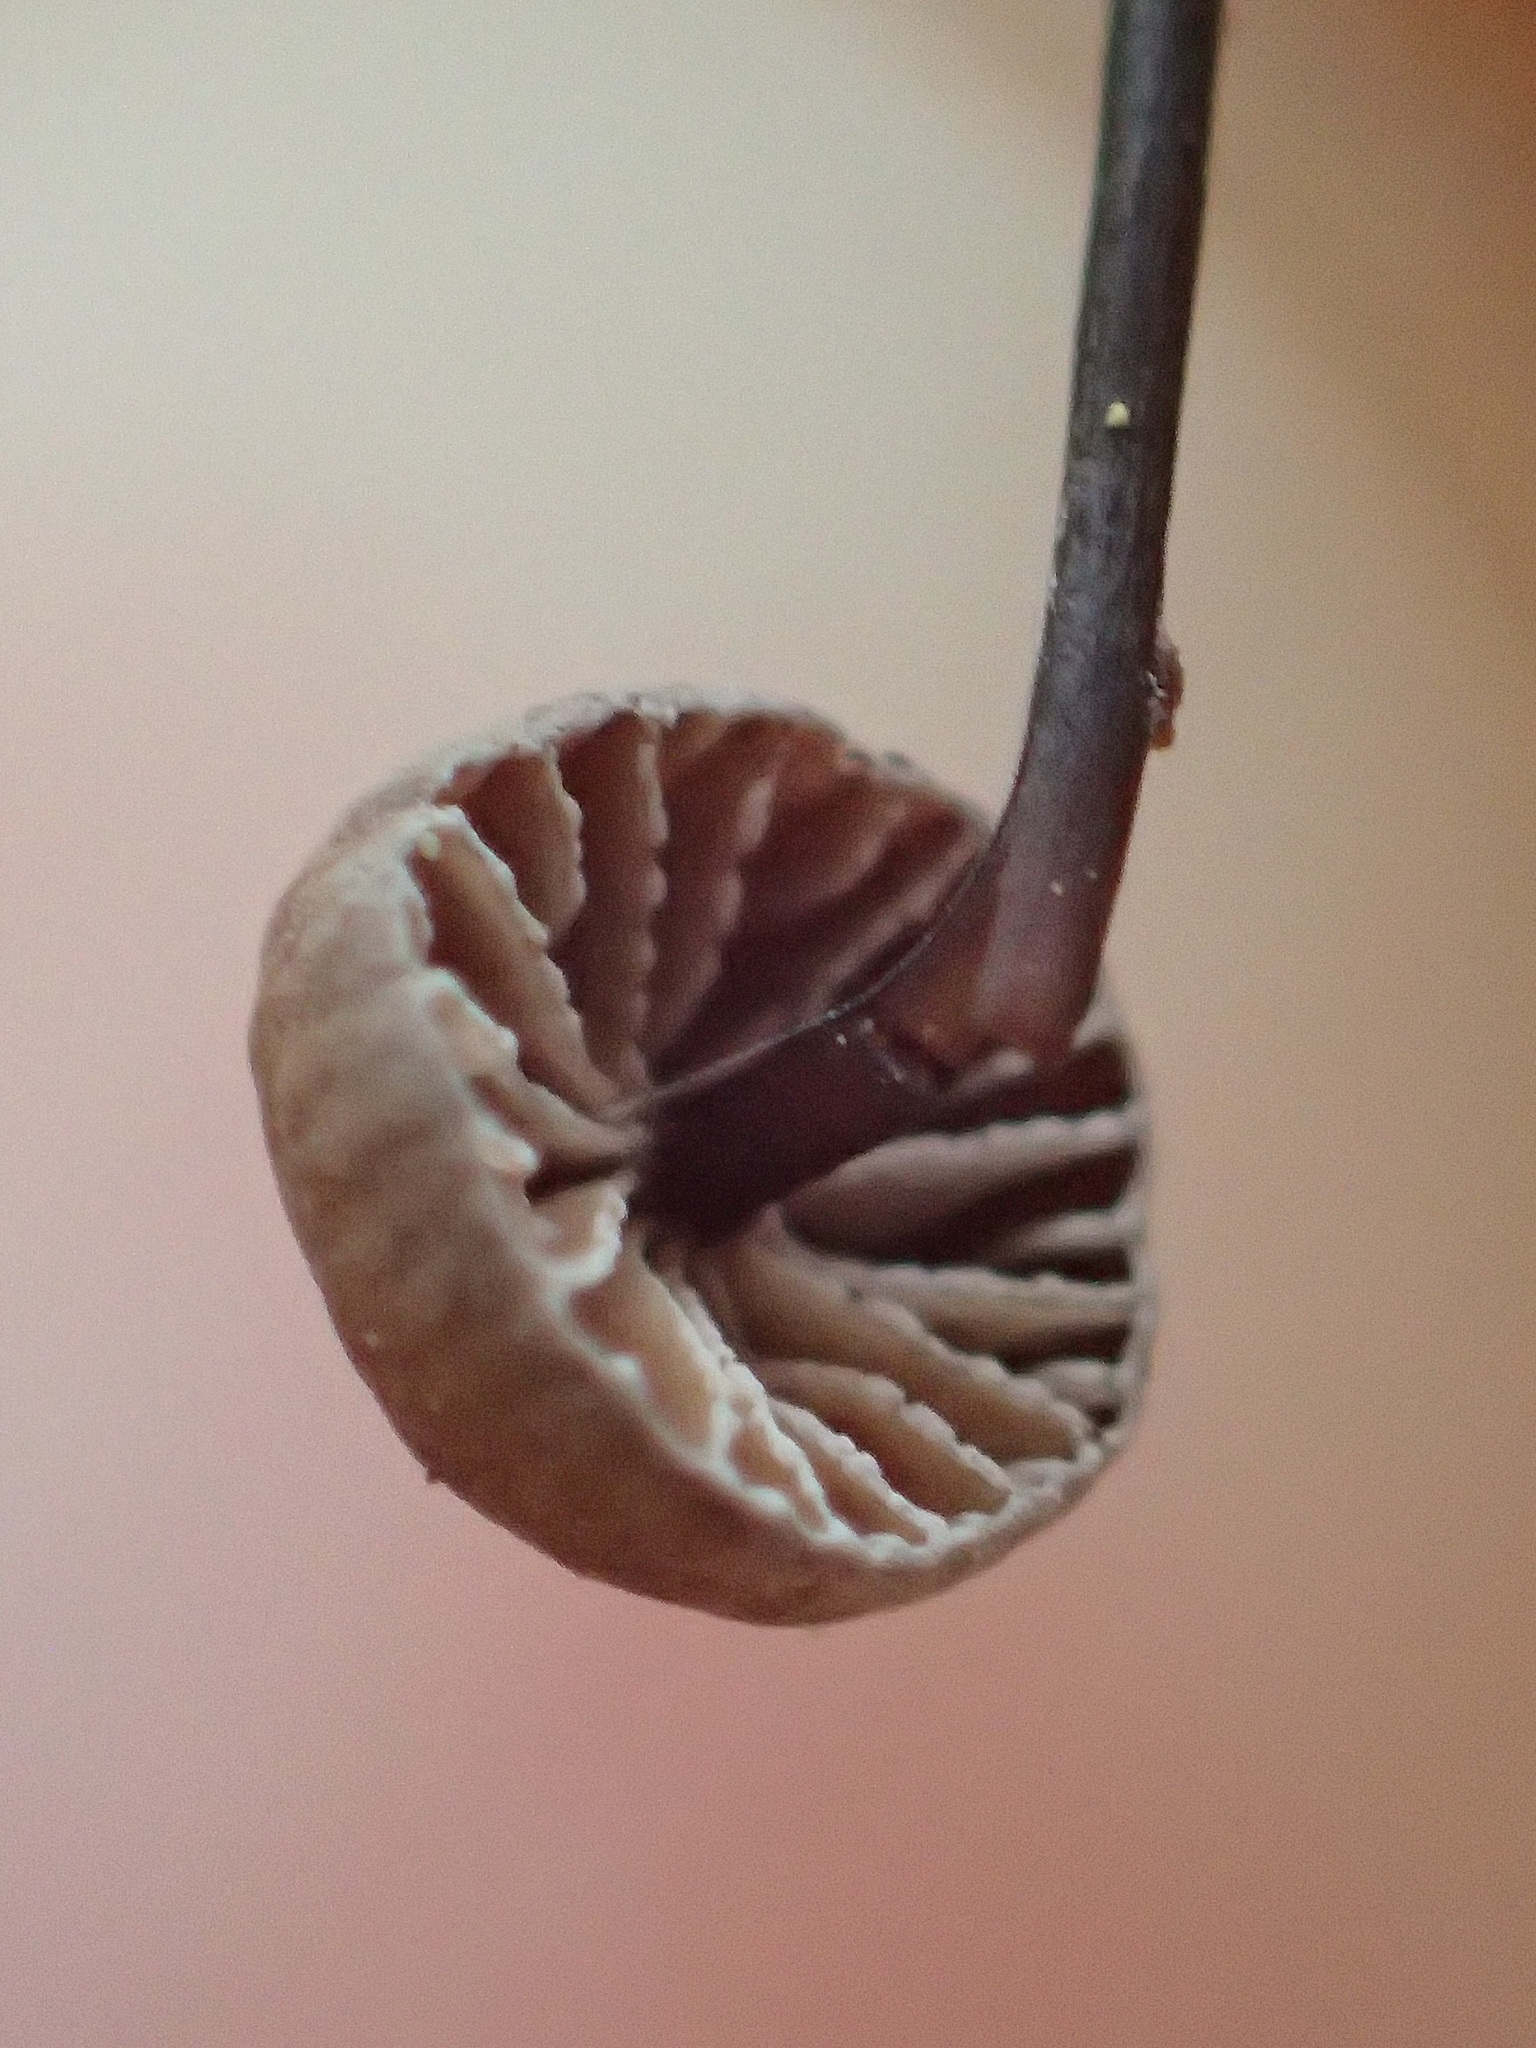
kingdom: Fungi
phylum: Basidiomycota
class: Agaricomycetes
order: Agaricales
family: Omphalotaceae
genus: Collybiopsis
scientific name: Collybiopsis quercophila
